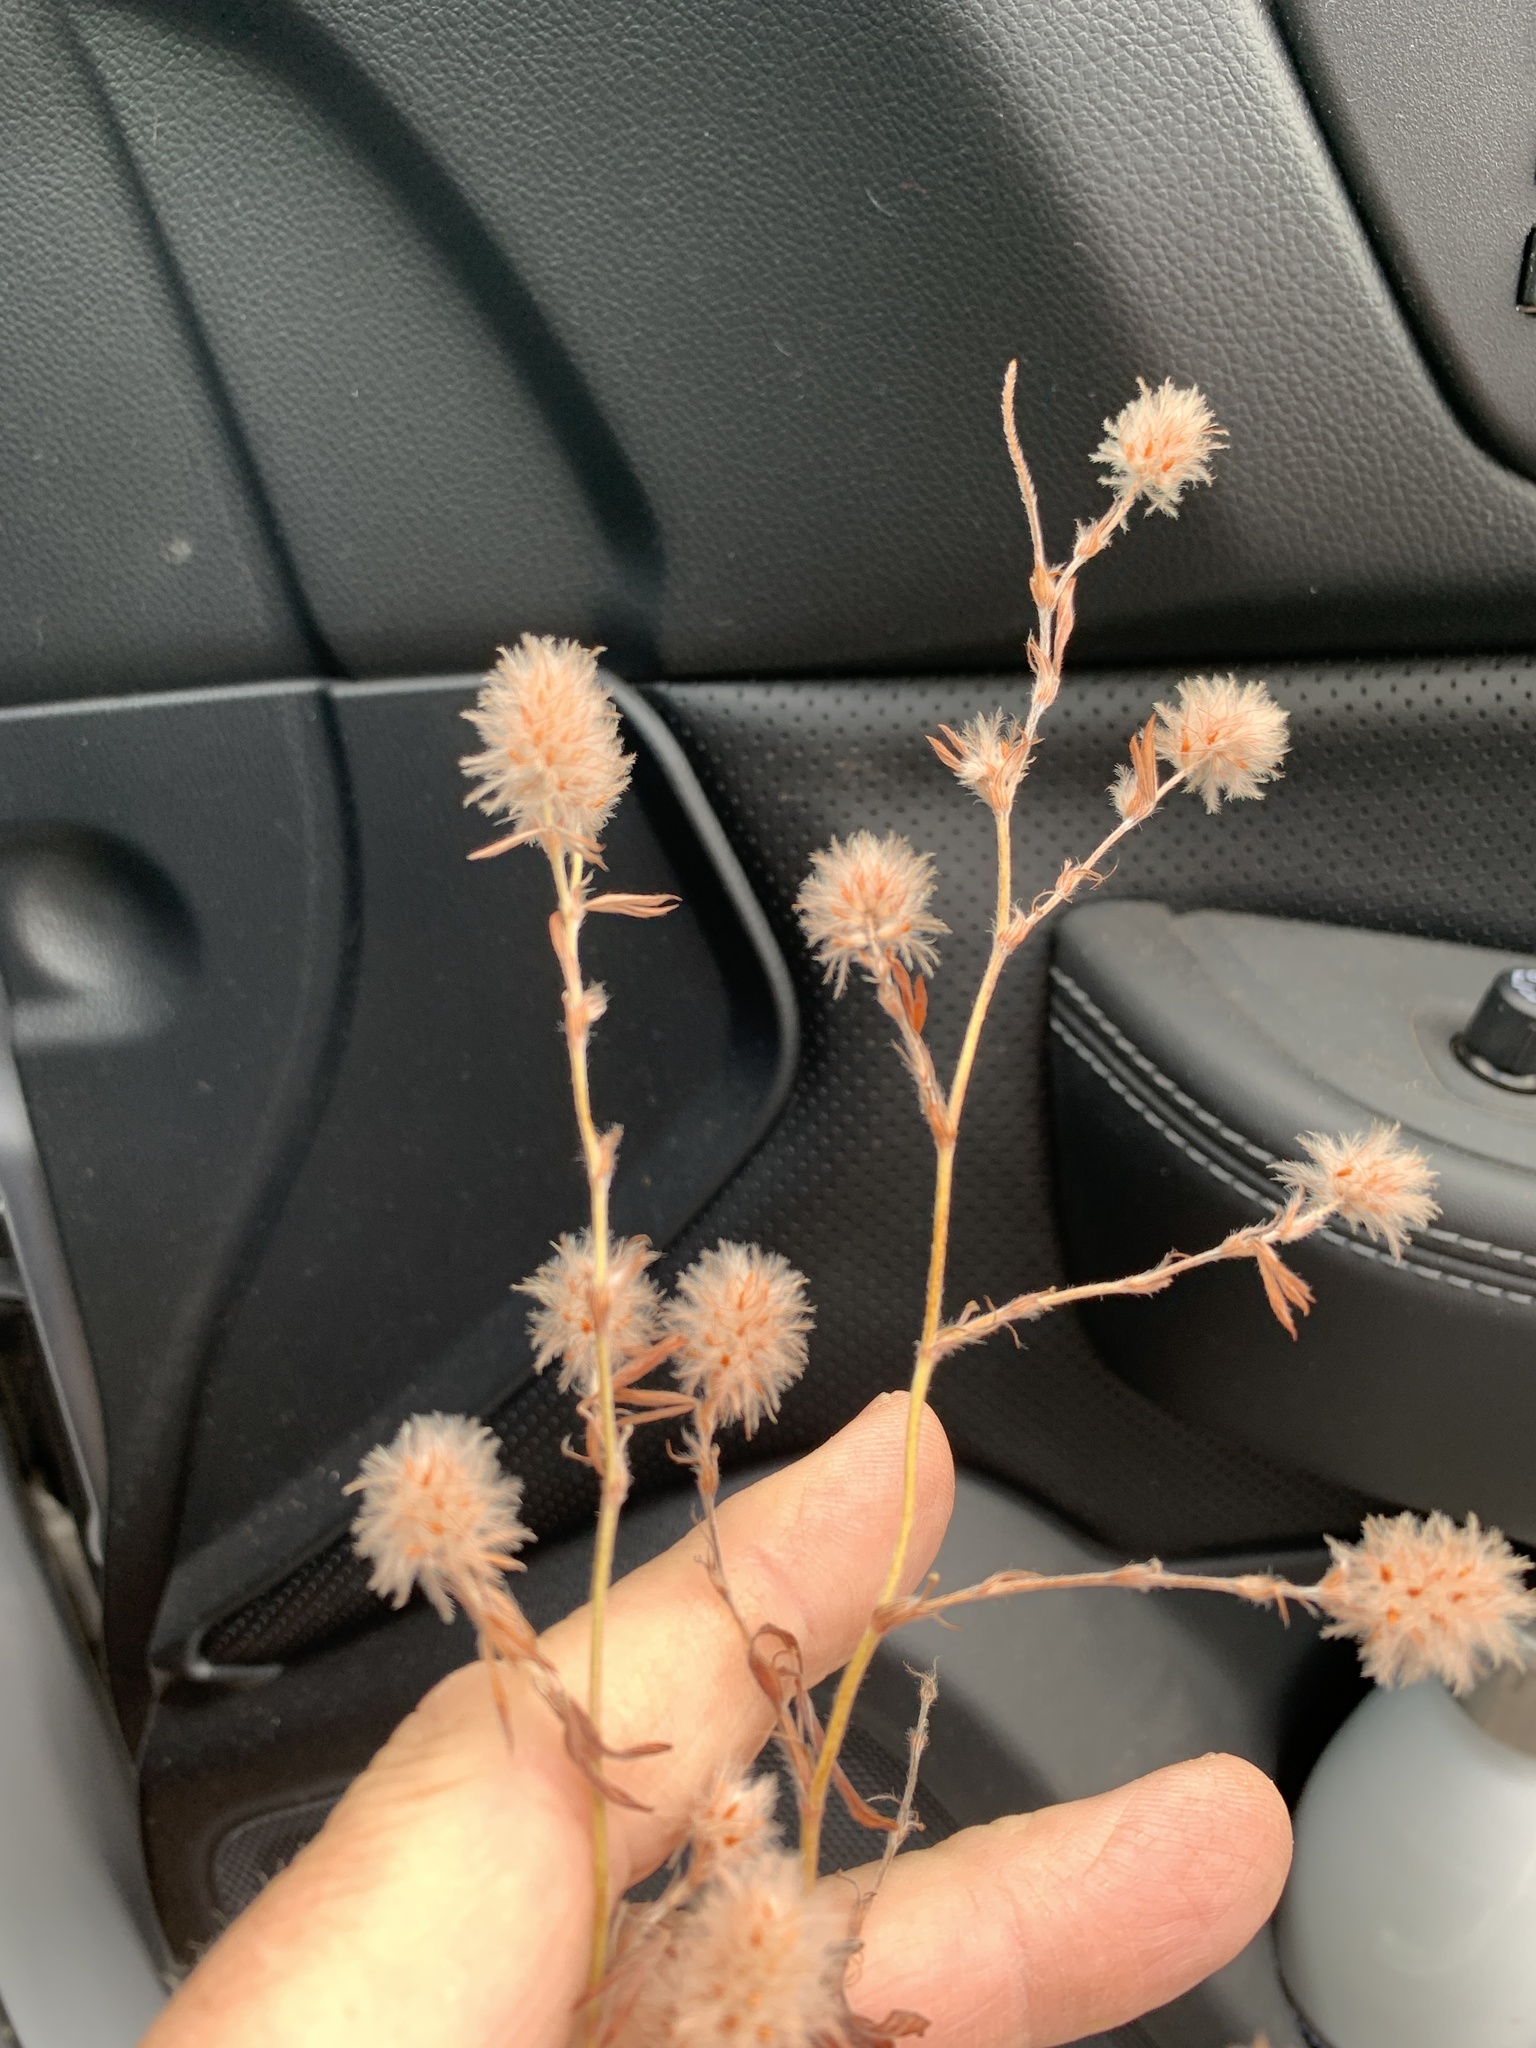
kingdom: Plantae
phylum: Tracheophyta
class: Magnoliopsida
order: Fabales
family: Fabaceae
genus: Trifolium
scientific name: Trifolium arvense
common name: Hare's-foot clover
